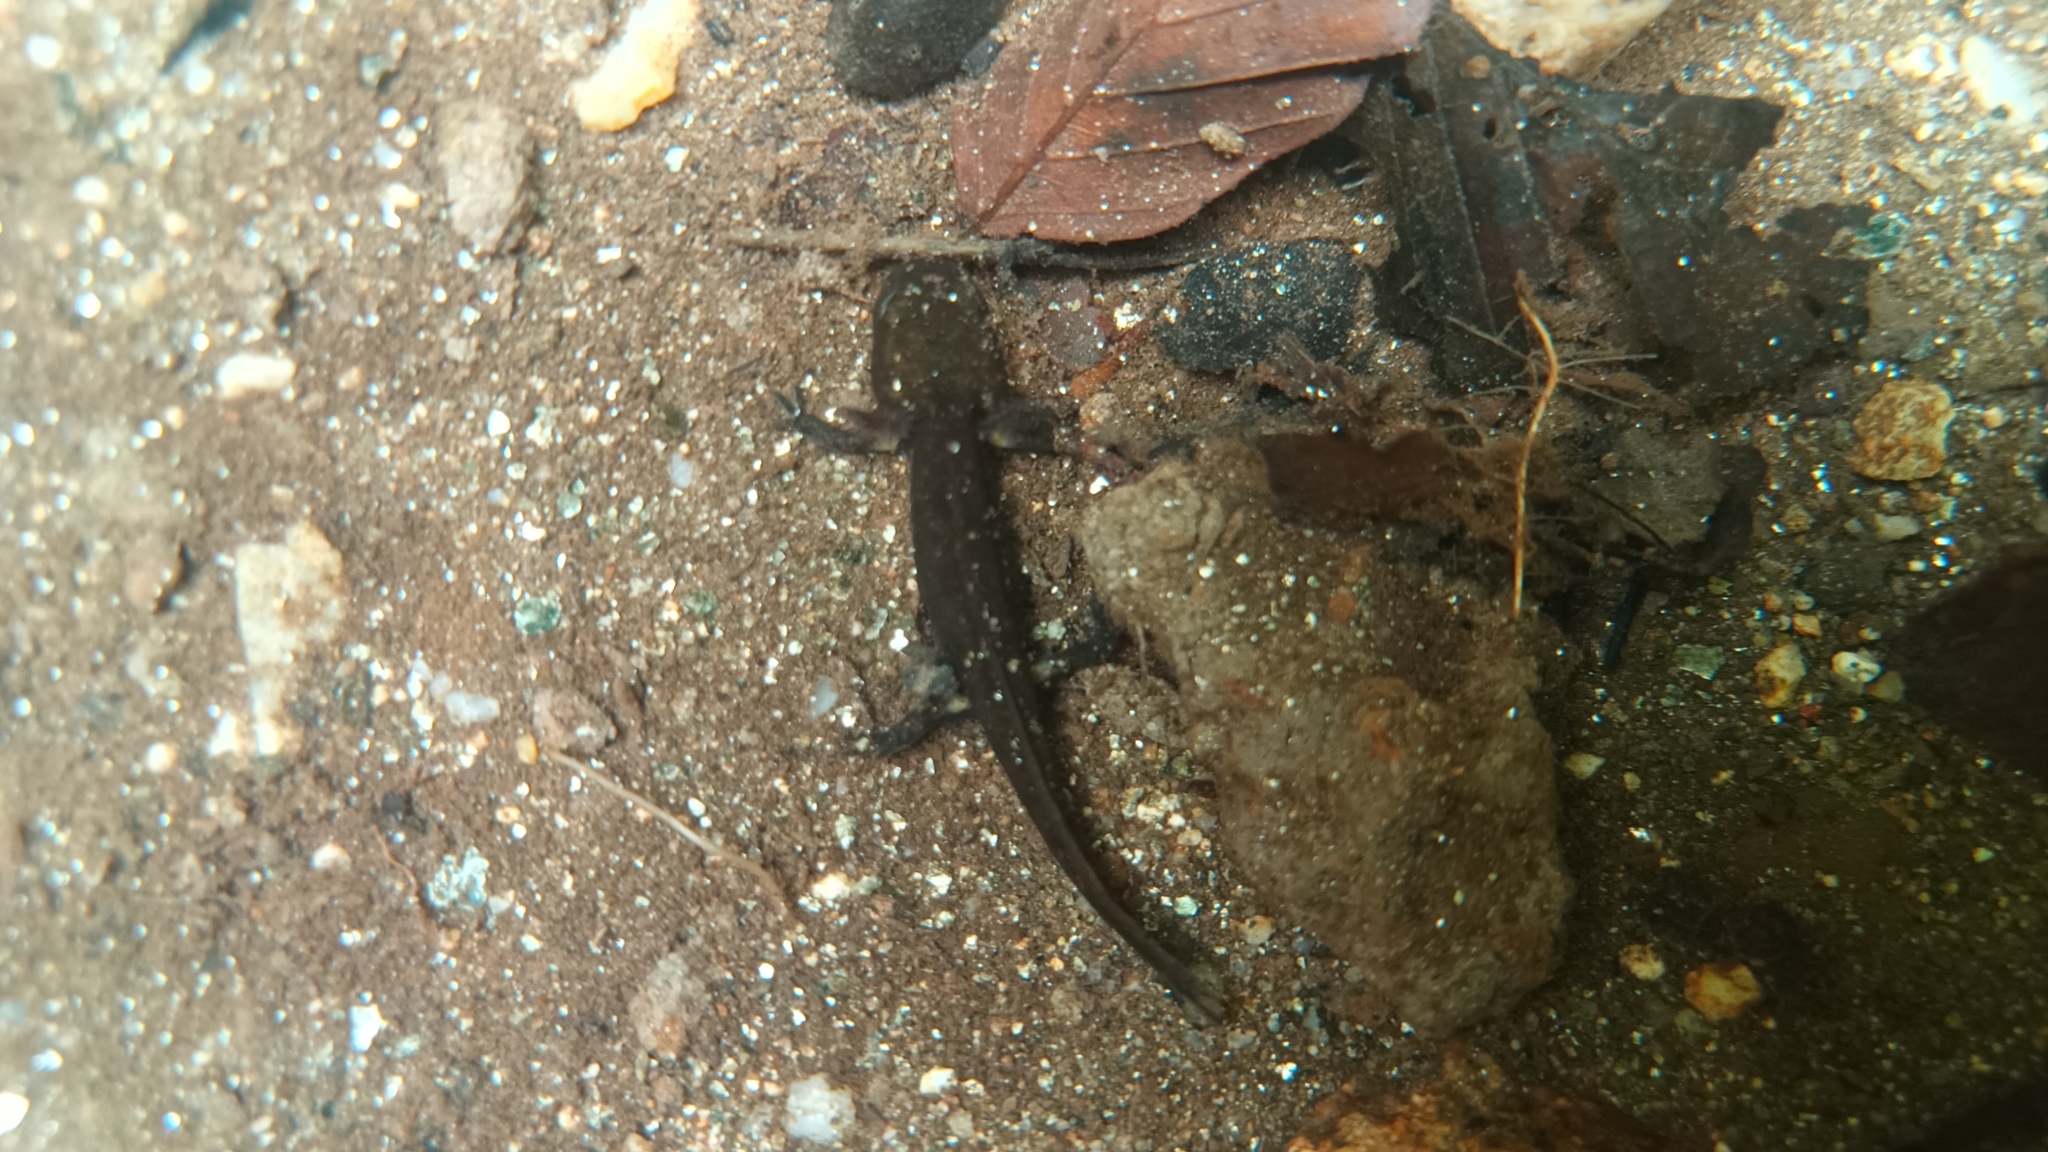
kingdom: Animalia
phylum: Chordata
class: Amphibia
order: Caudata
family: Salamandridae
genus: Salamandra
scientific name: Salamandra salamandra
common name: Fire salamander
